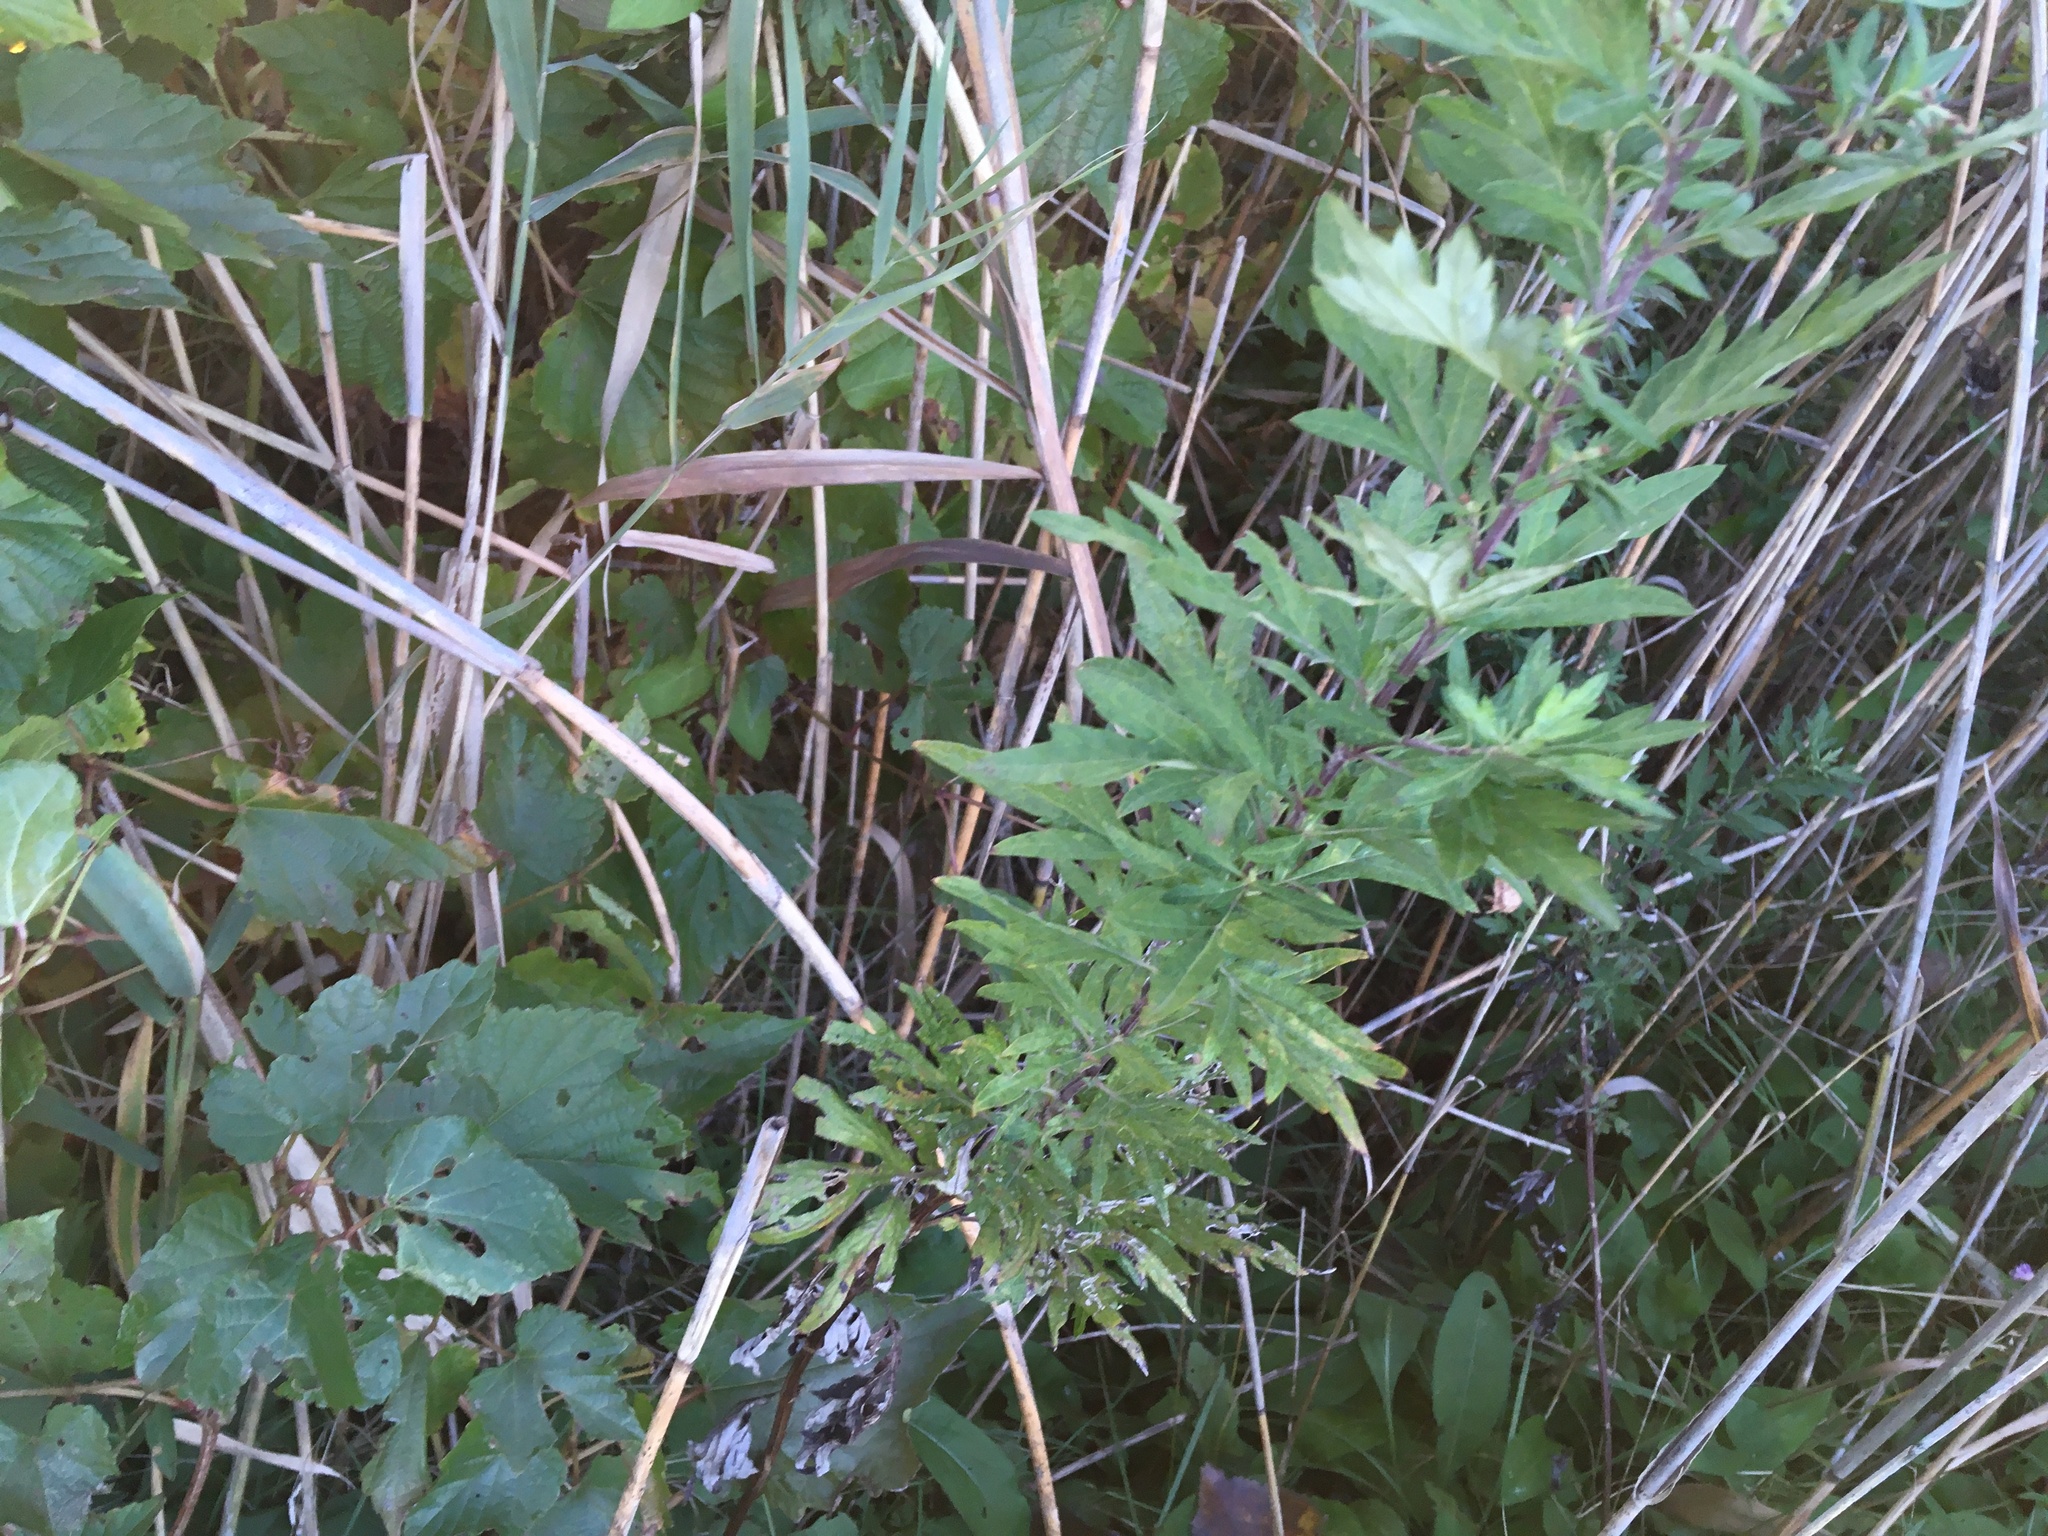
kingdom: Plantae
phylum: Tracheophyta
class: Magnoliopsida
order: Asterales
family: Asteraceae
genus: Artemisia
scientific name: Artemisia vulgaris
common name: Mugwort
